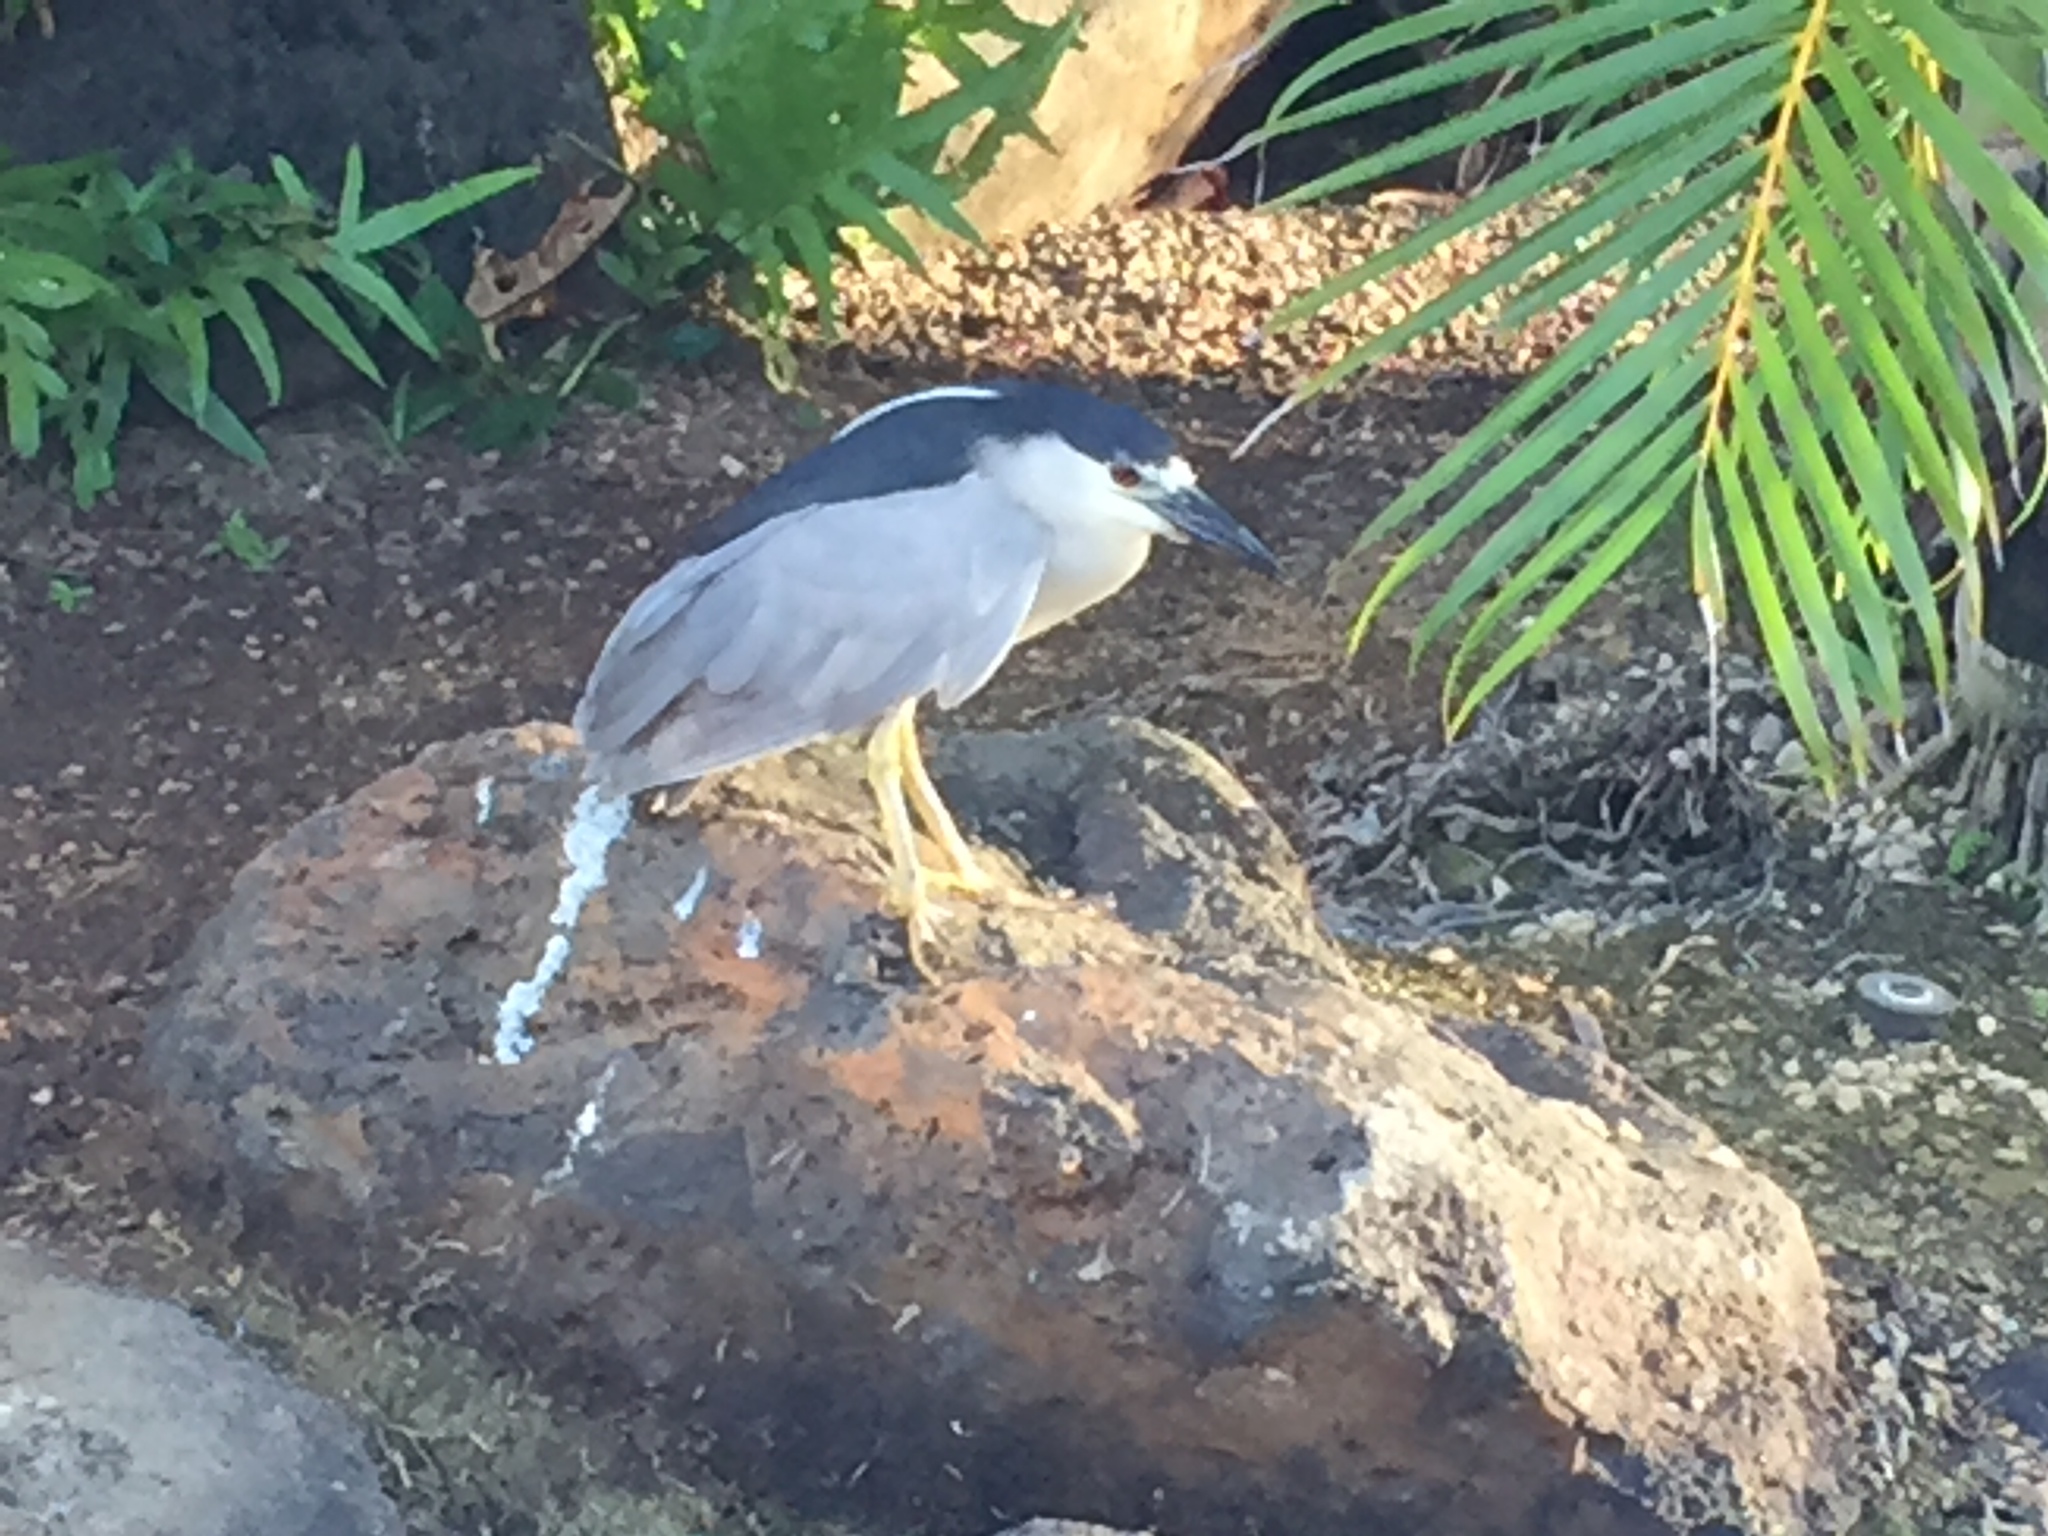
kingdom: Animalia
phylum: Chordata
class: Aves
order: Pelecaniformes
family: Ardeidae
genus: Nycticorax
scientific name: Nycticorax nycticorax
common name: Black-crowned night heron
